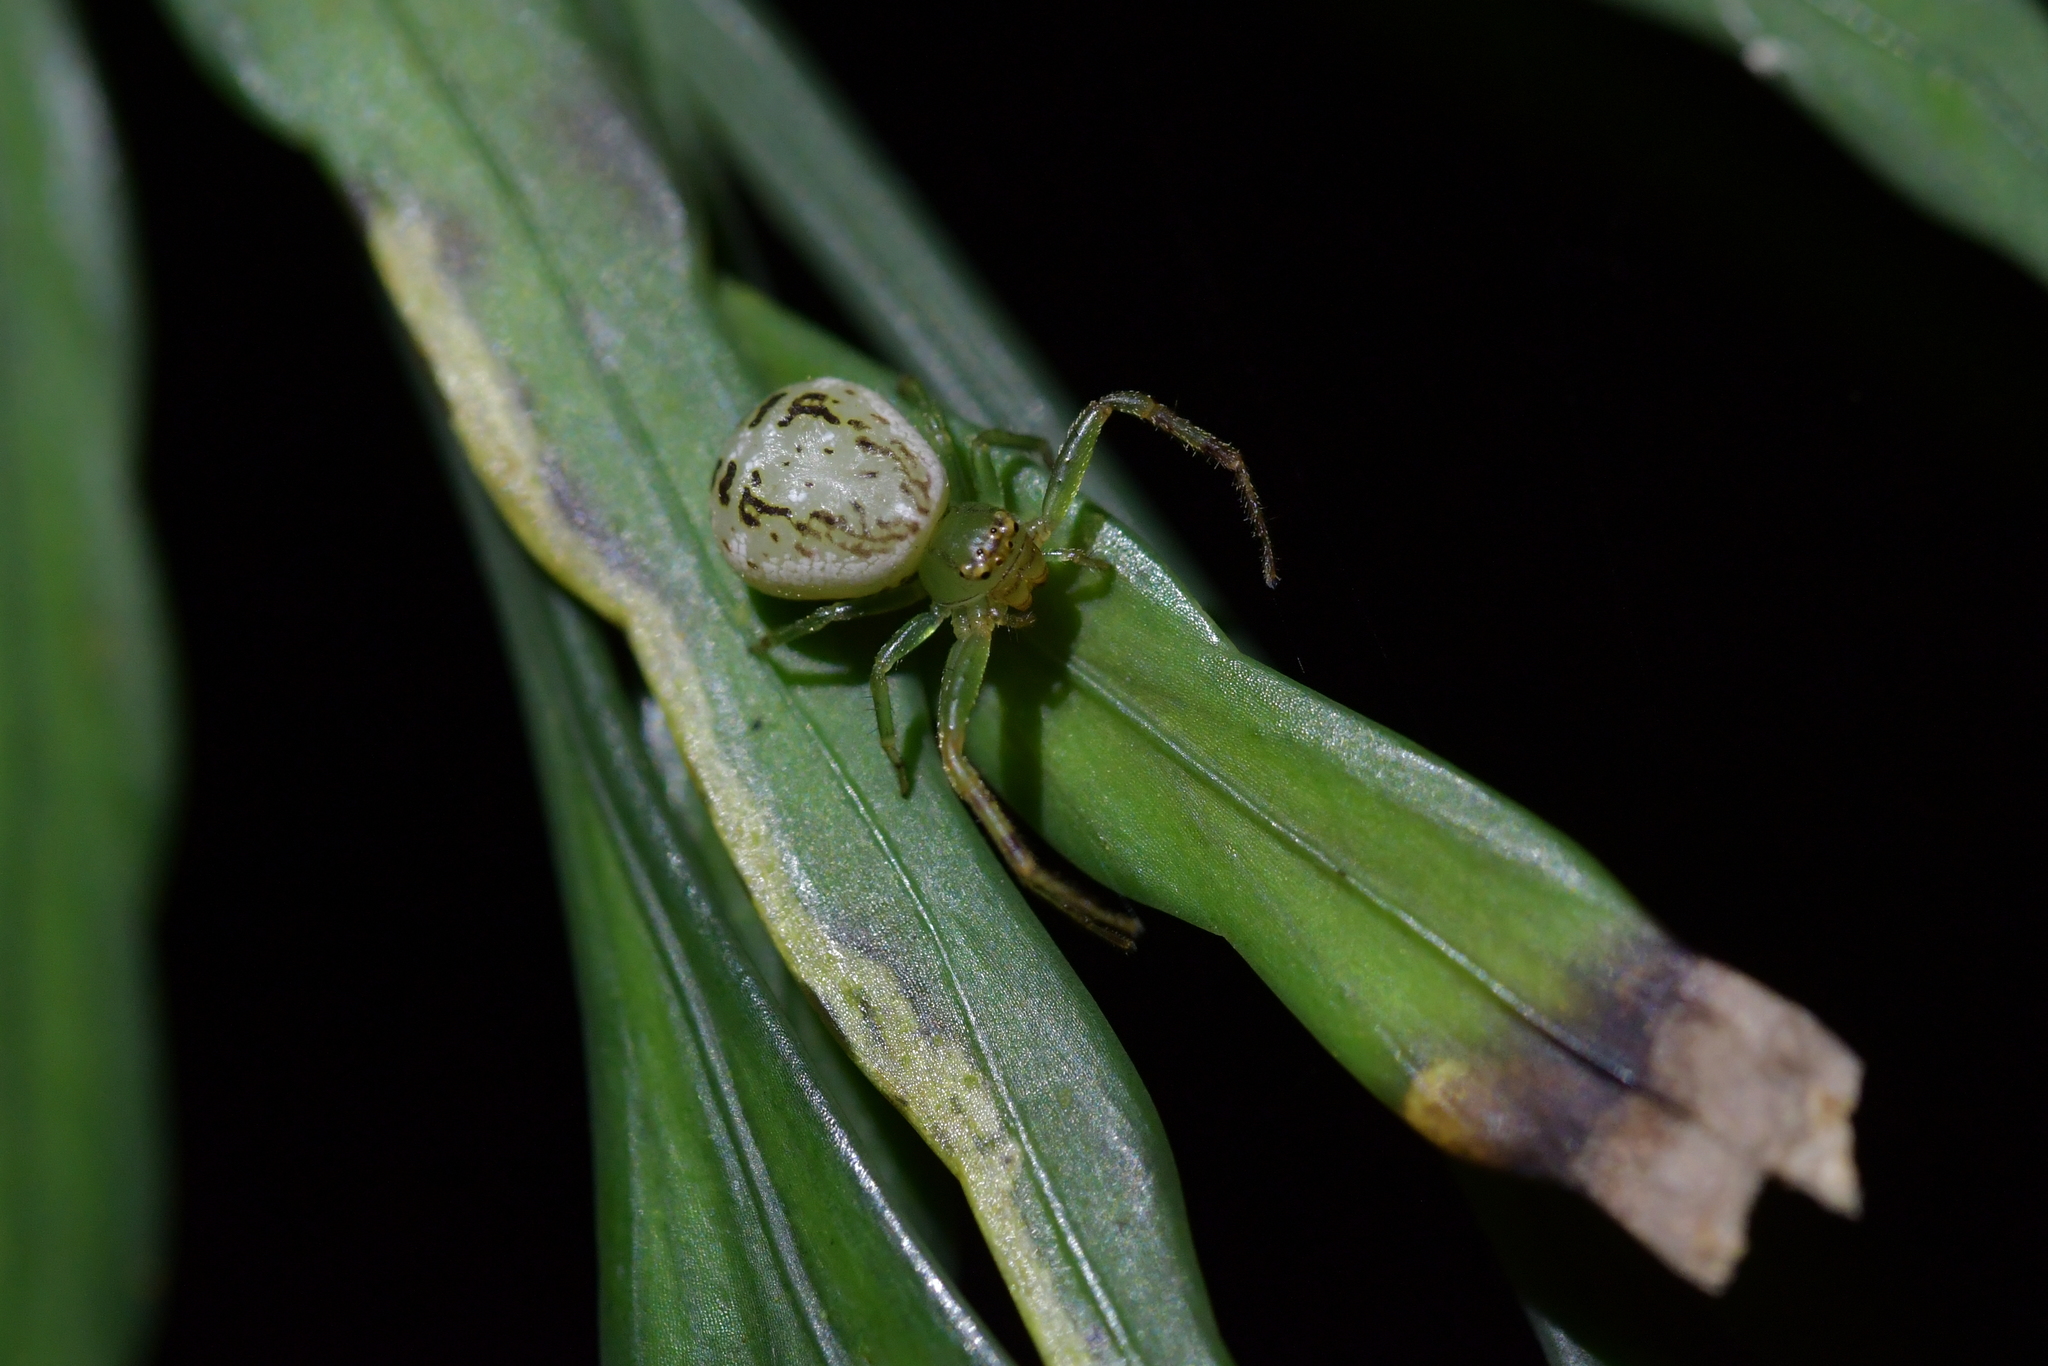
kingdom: Animalia
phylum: Arthropoda
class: Arachnida
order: Araneae
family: Thomisidae
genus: Diaea
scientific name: Diaea ambara
